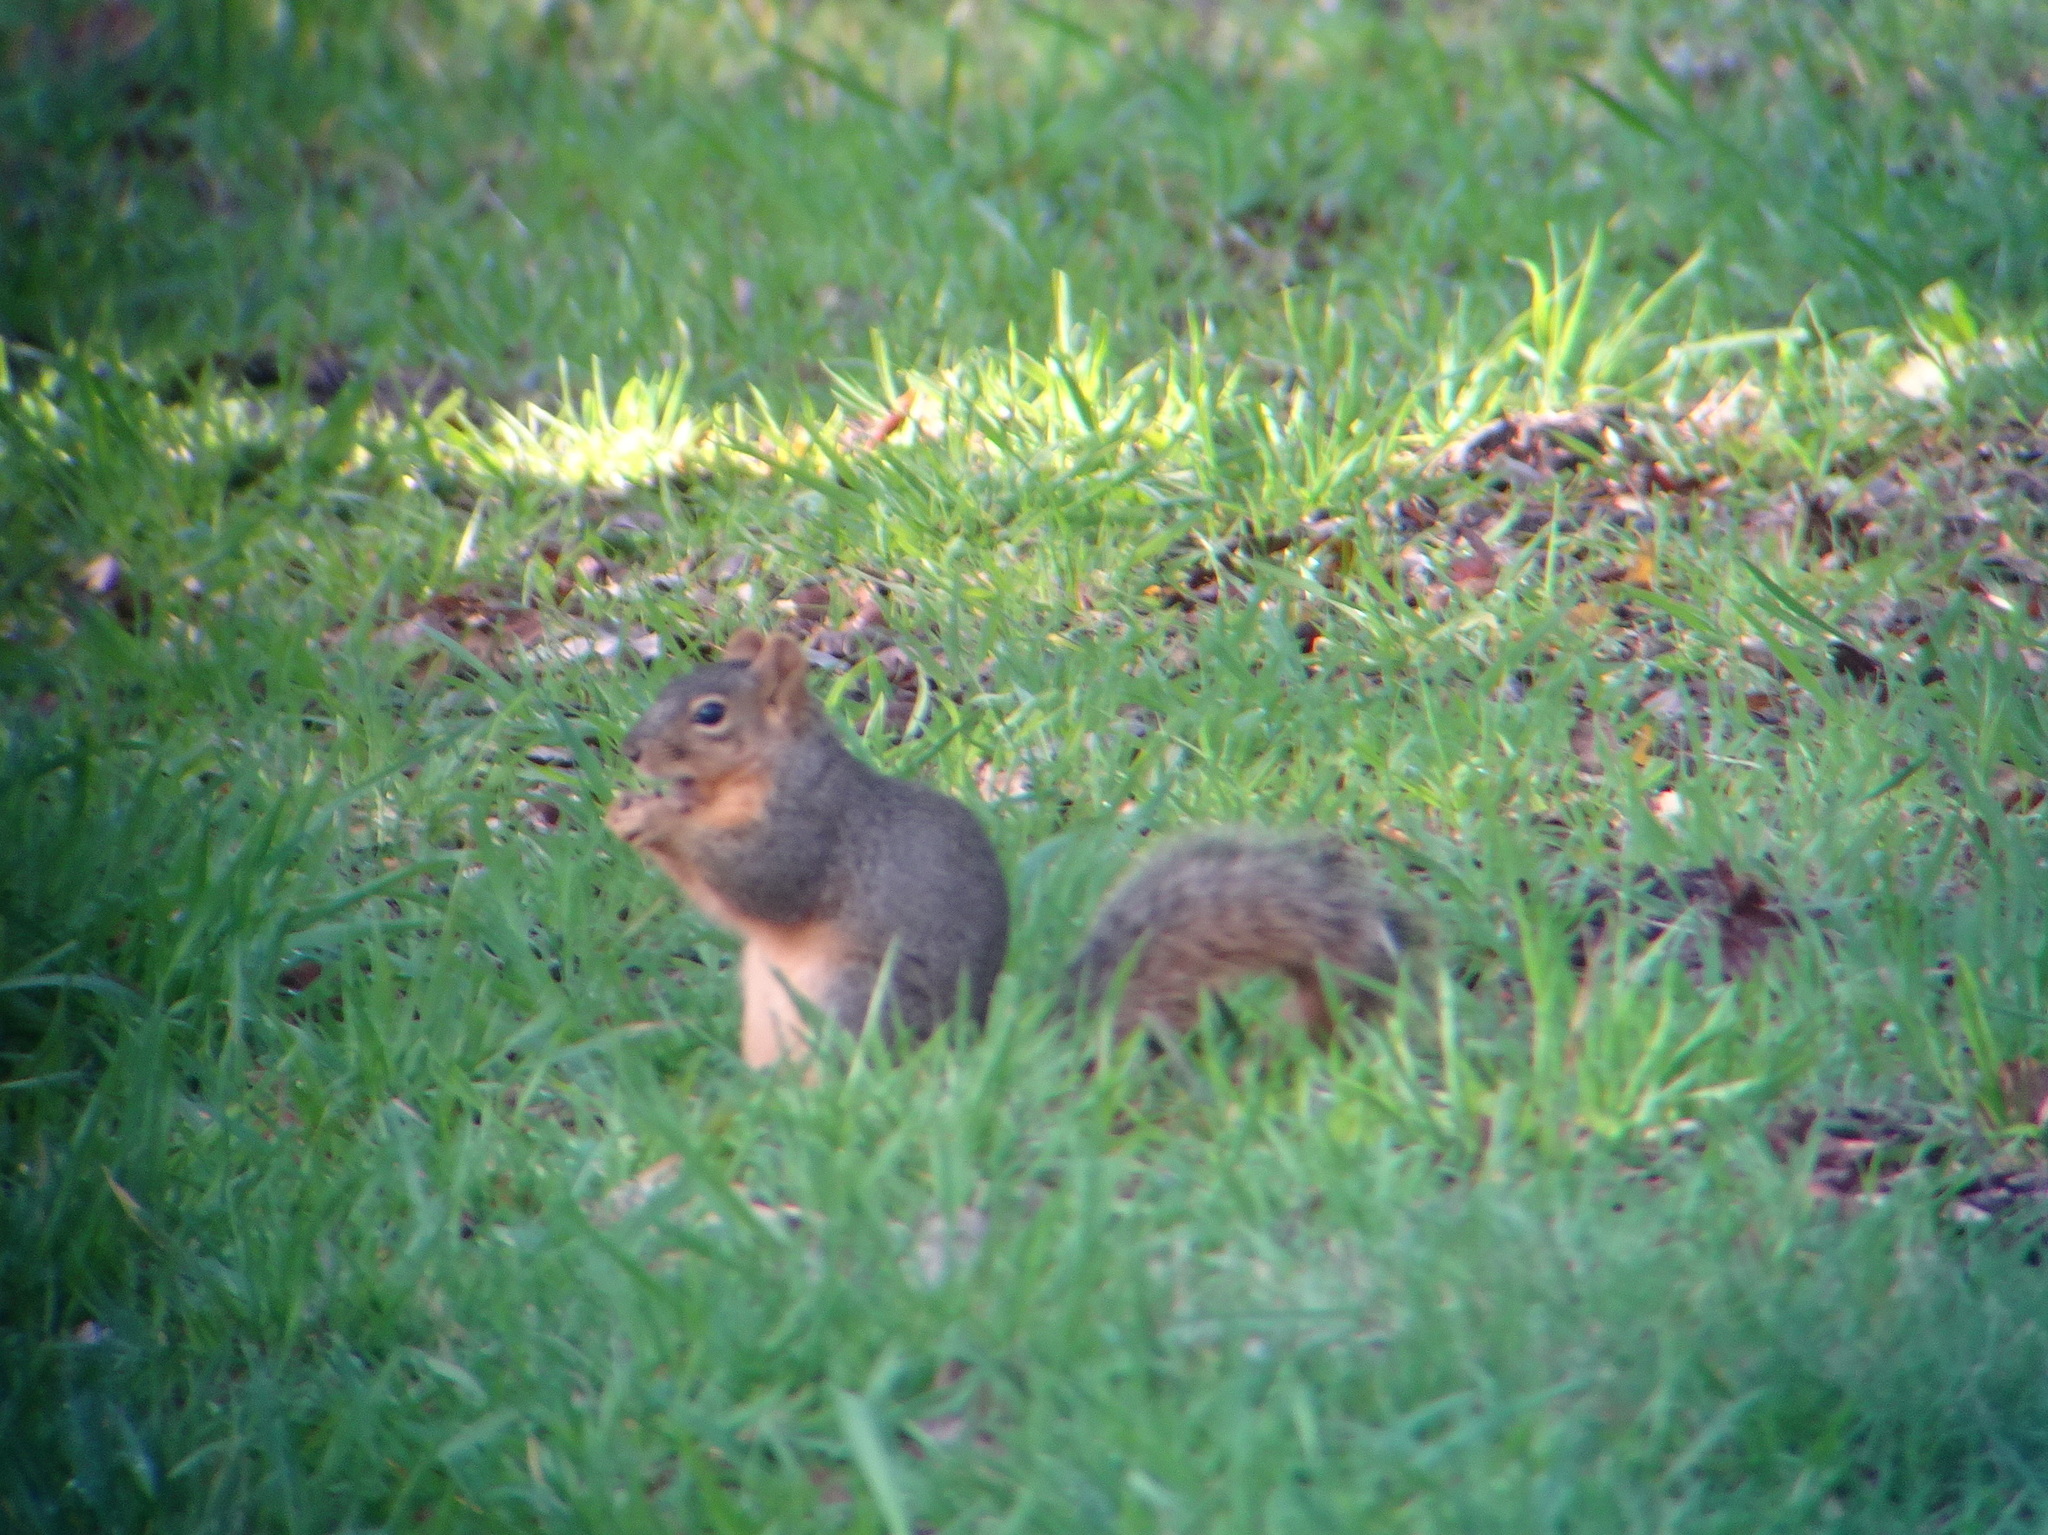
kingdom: Animalia
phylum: Chordata
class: Mammalia
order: Rodentia
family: Sciuridae
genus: Sciurus
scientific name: Sciurus niger
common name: Fox squirrel
